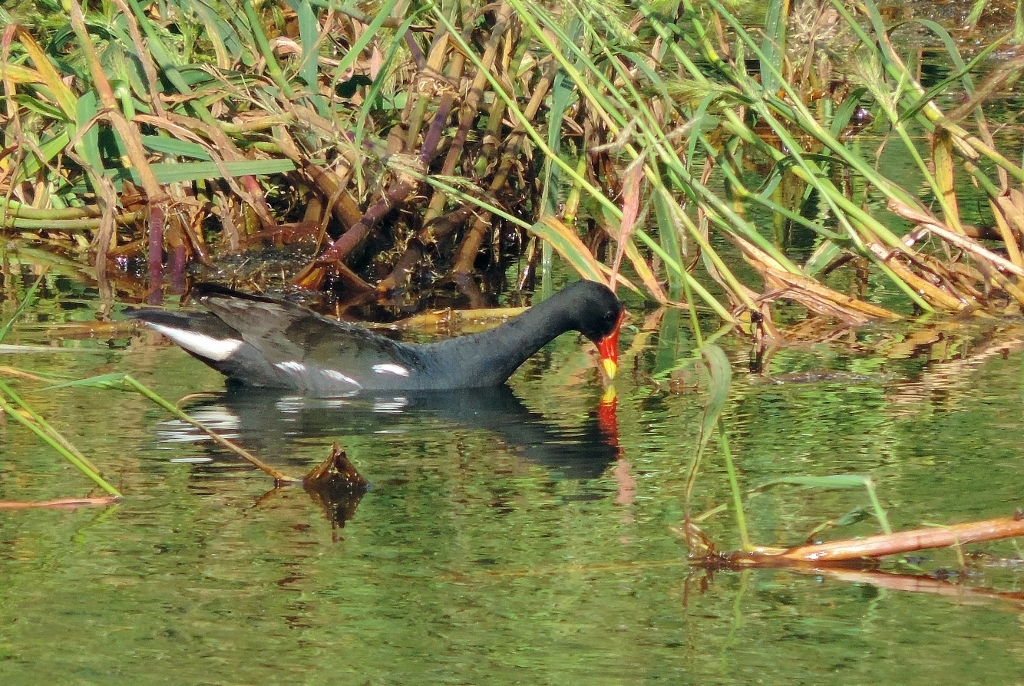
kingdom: Animalia
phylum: Chordata
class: Aves
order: Gruiformes
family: Rallidae
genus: Gallinula
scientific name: Gallinula chloropus
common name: Common moorhen
